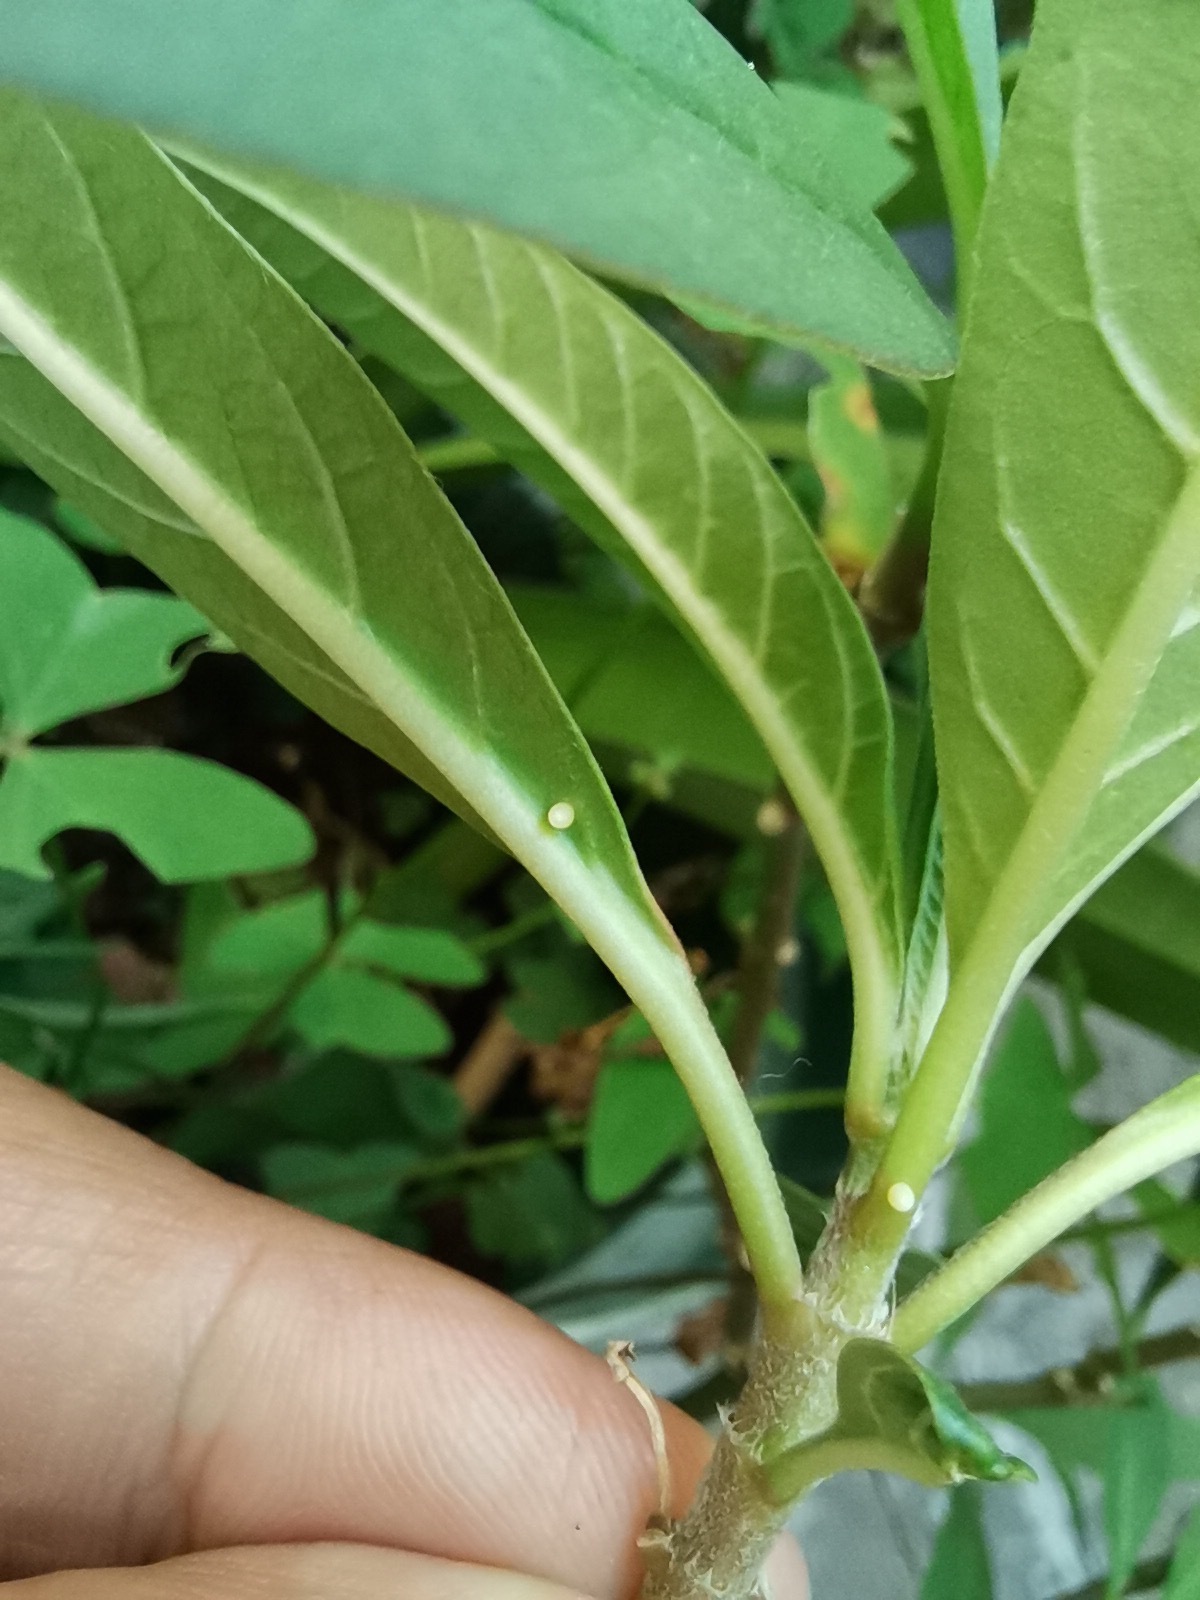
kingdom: Animalia
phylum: Arthropoda
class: Insecta
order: Lepidoptera
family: Nymphalidae
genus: Danaus
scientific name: Danaus plexippus
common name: Monarch
